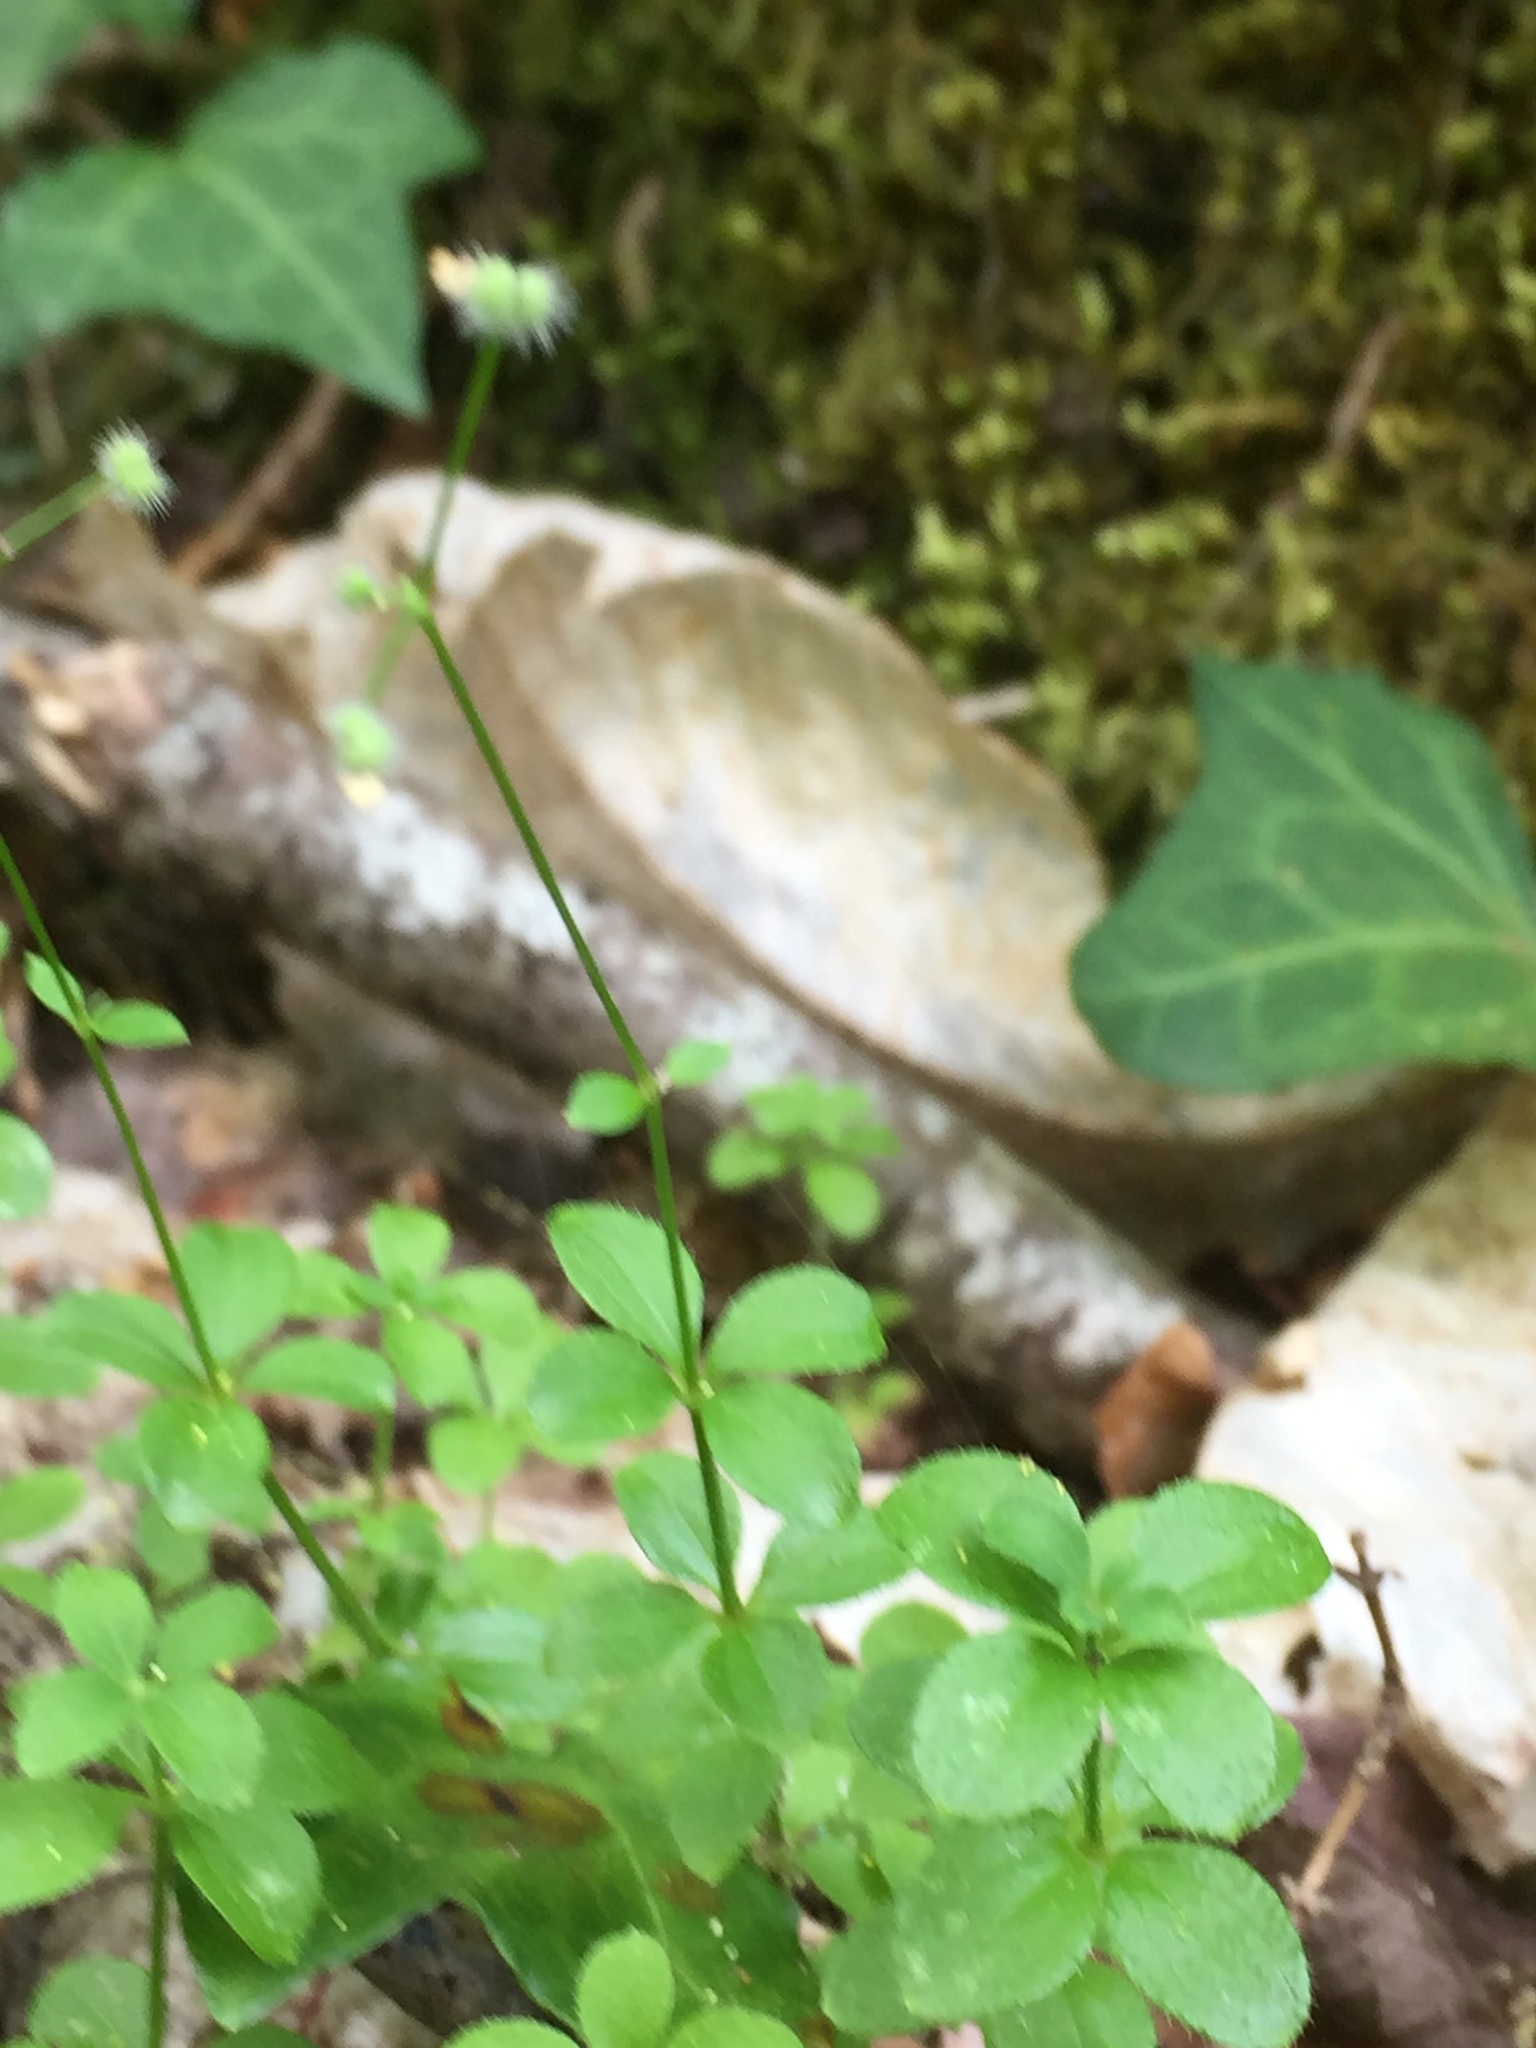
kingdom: Plantae
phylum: Tracheophyta
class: Magnoliopsida
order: Gentianales
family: Rubiaceae
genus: Galium
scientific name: Galium rotundifolium
